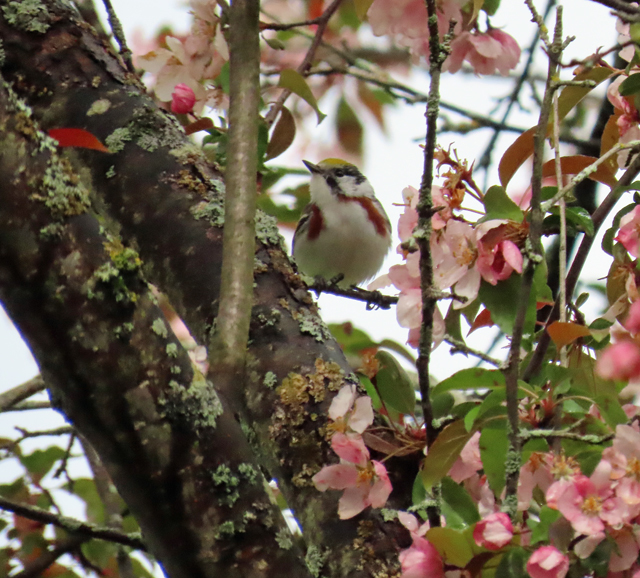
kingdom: Animalia
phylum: Chordata
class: Aves
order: Passeriformes
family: Parulidae
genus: Setophaga
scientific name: Setophaga pensylvanica
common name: Chestnut-sided warbler
